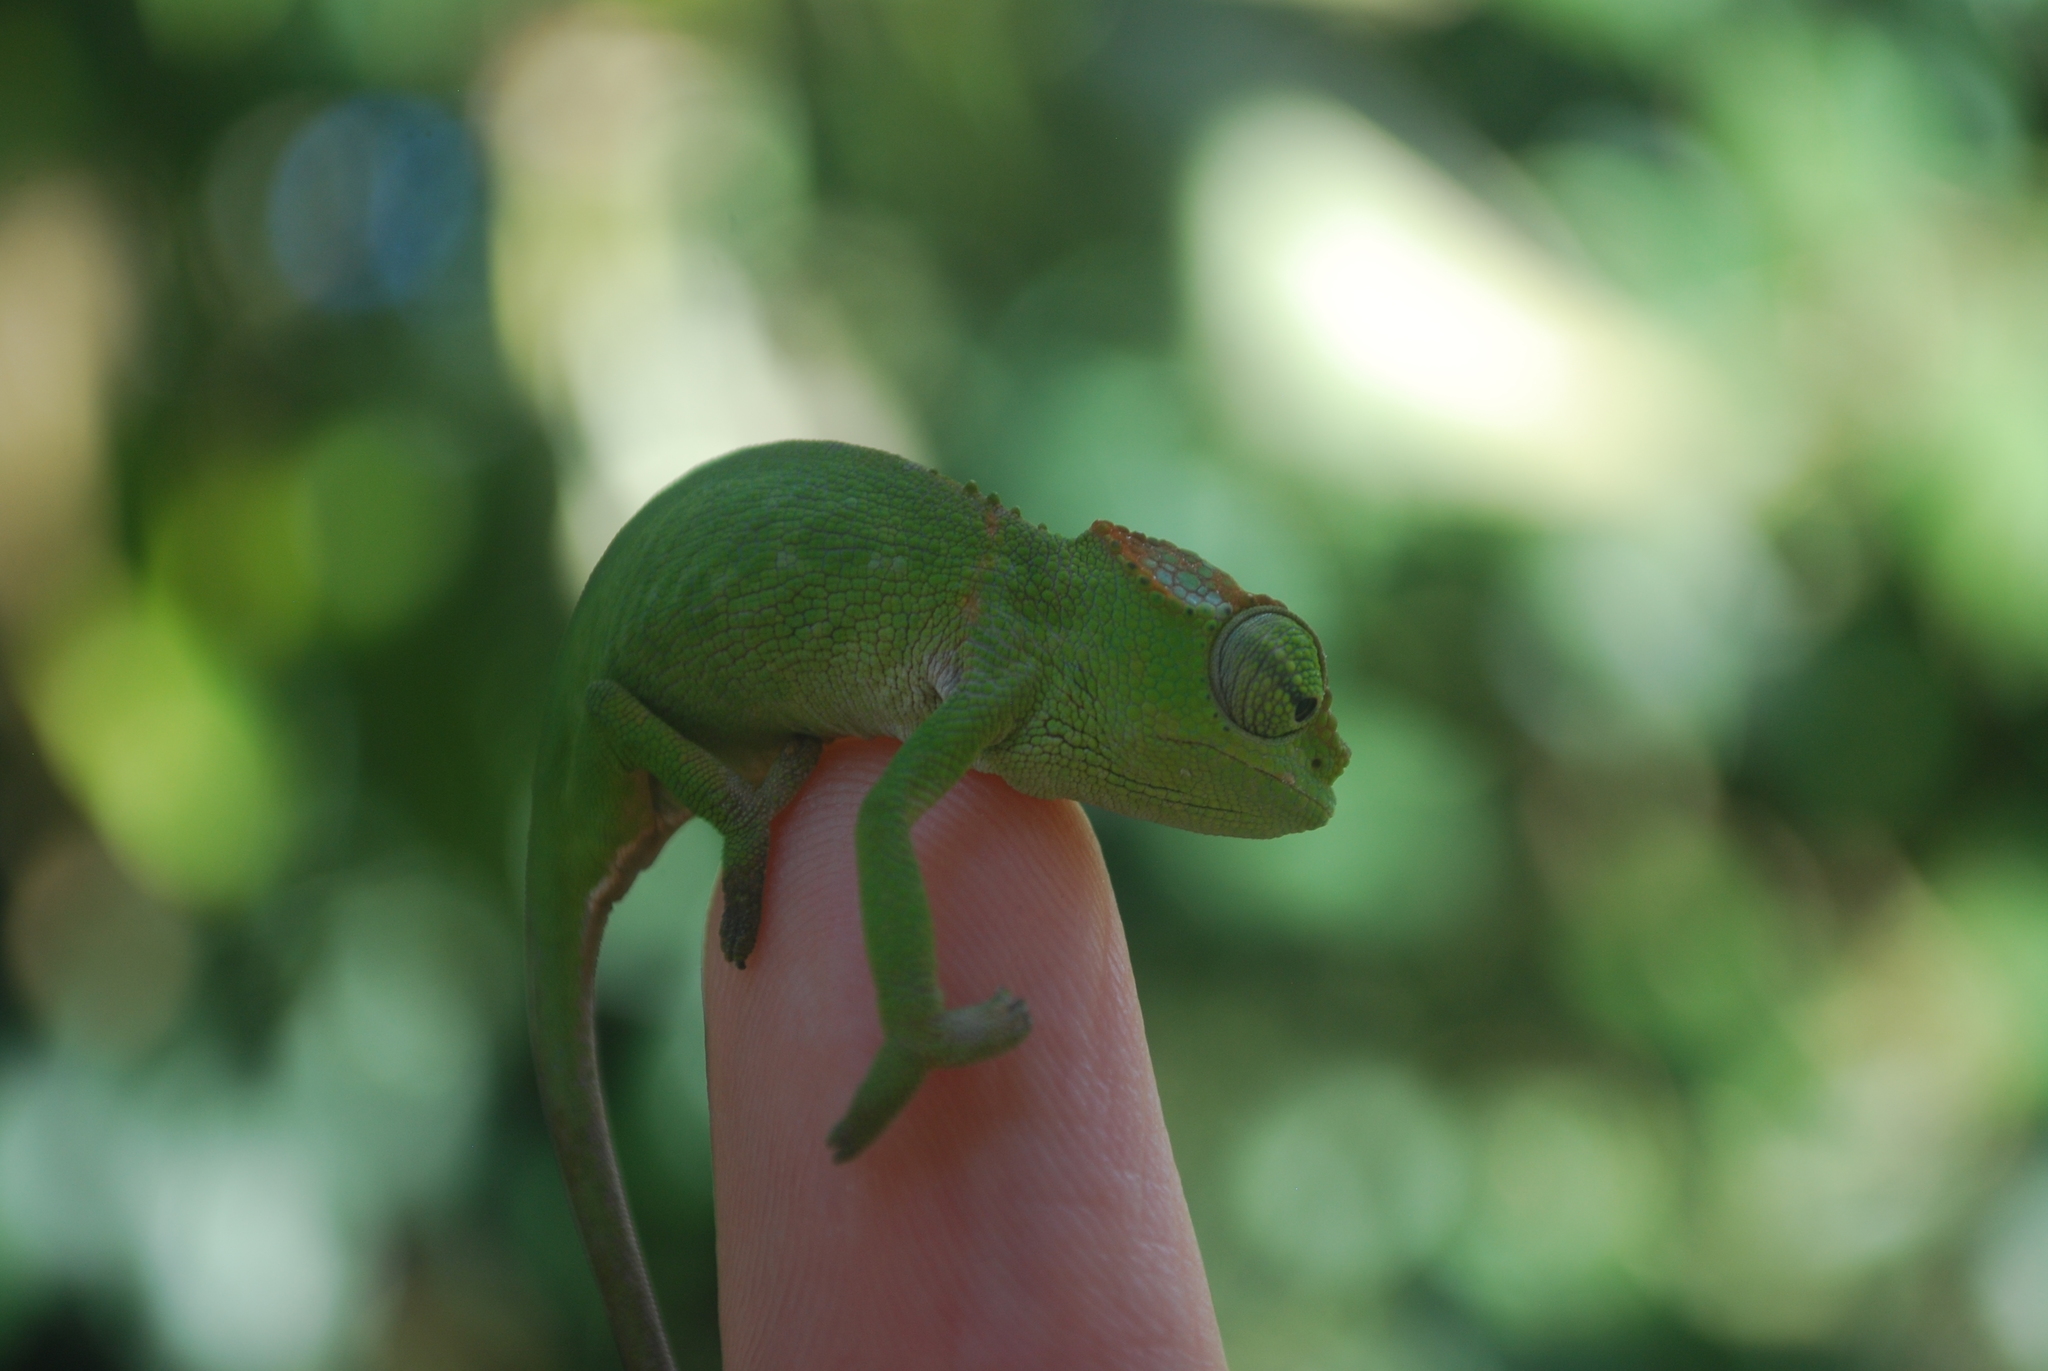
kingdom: Animalia
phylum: Chordata
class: Squamata
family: Chamaeleonidae
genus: Kinyongia
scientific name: Kinyongia boehmei
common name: Böhme’s two-horned chameleon
